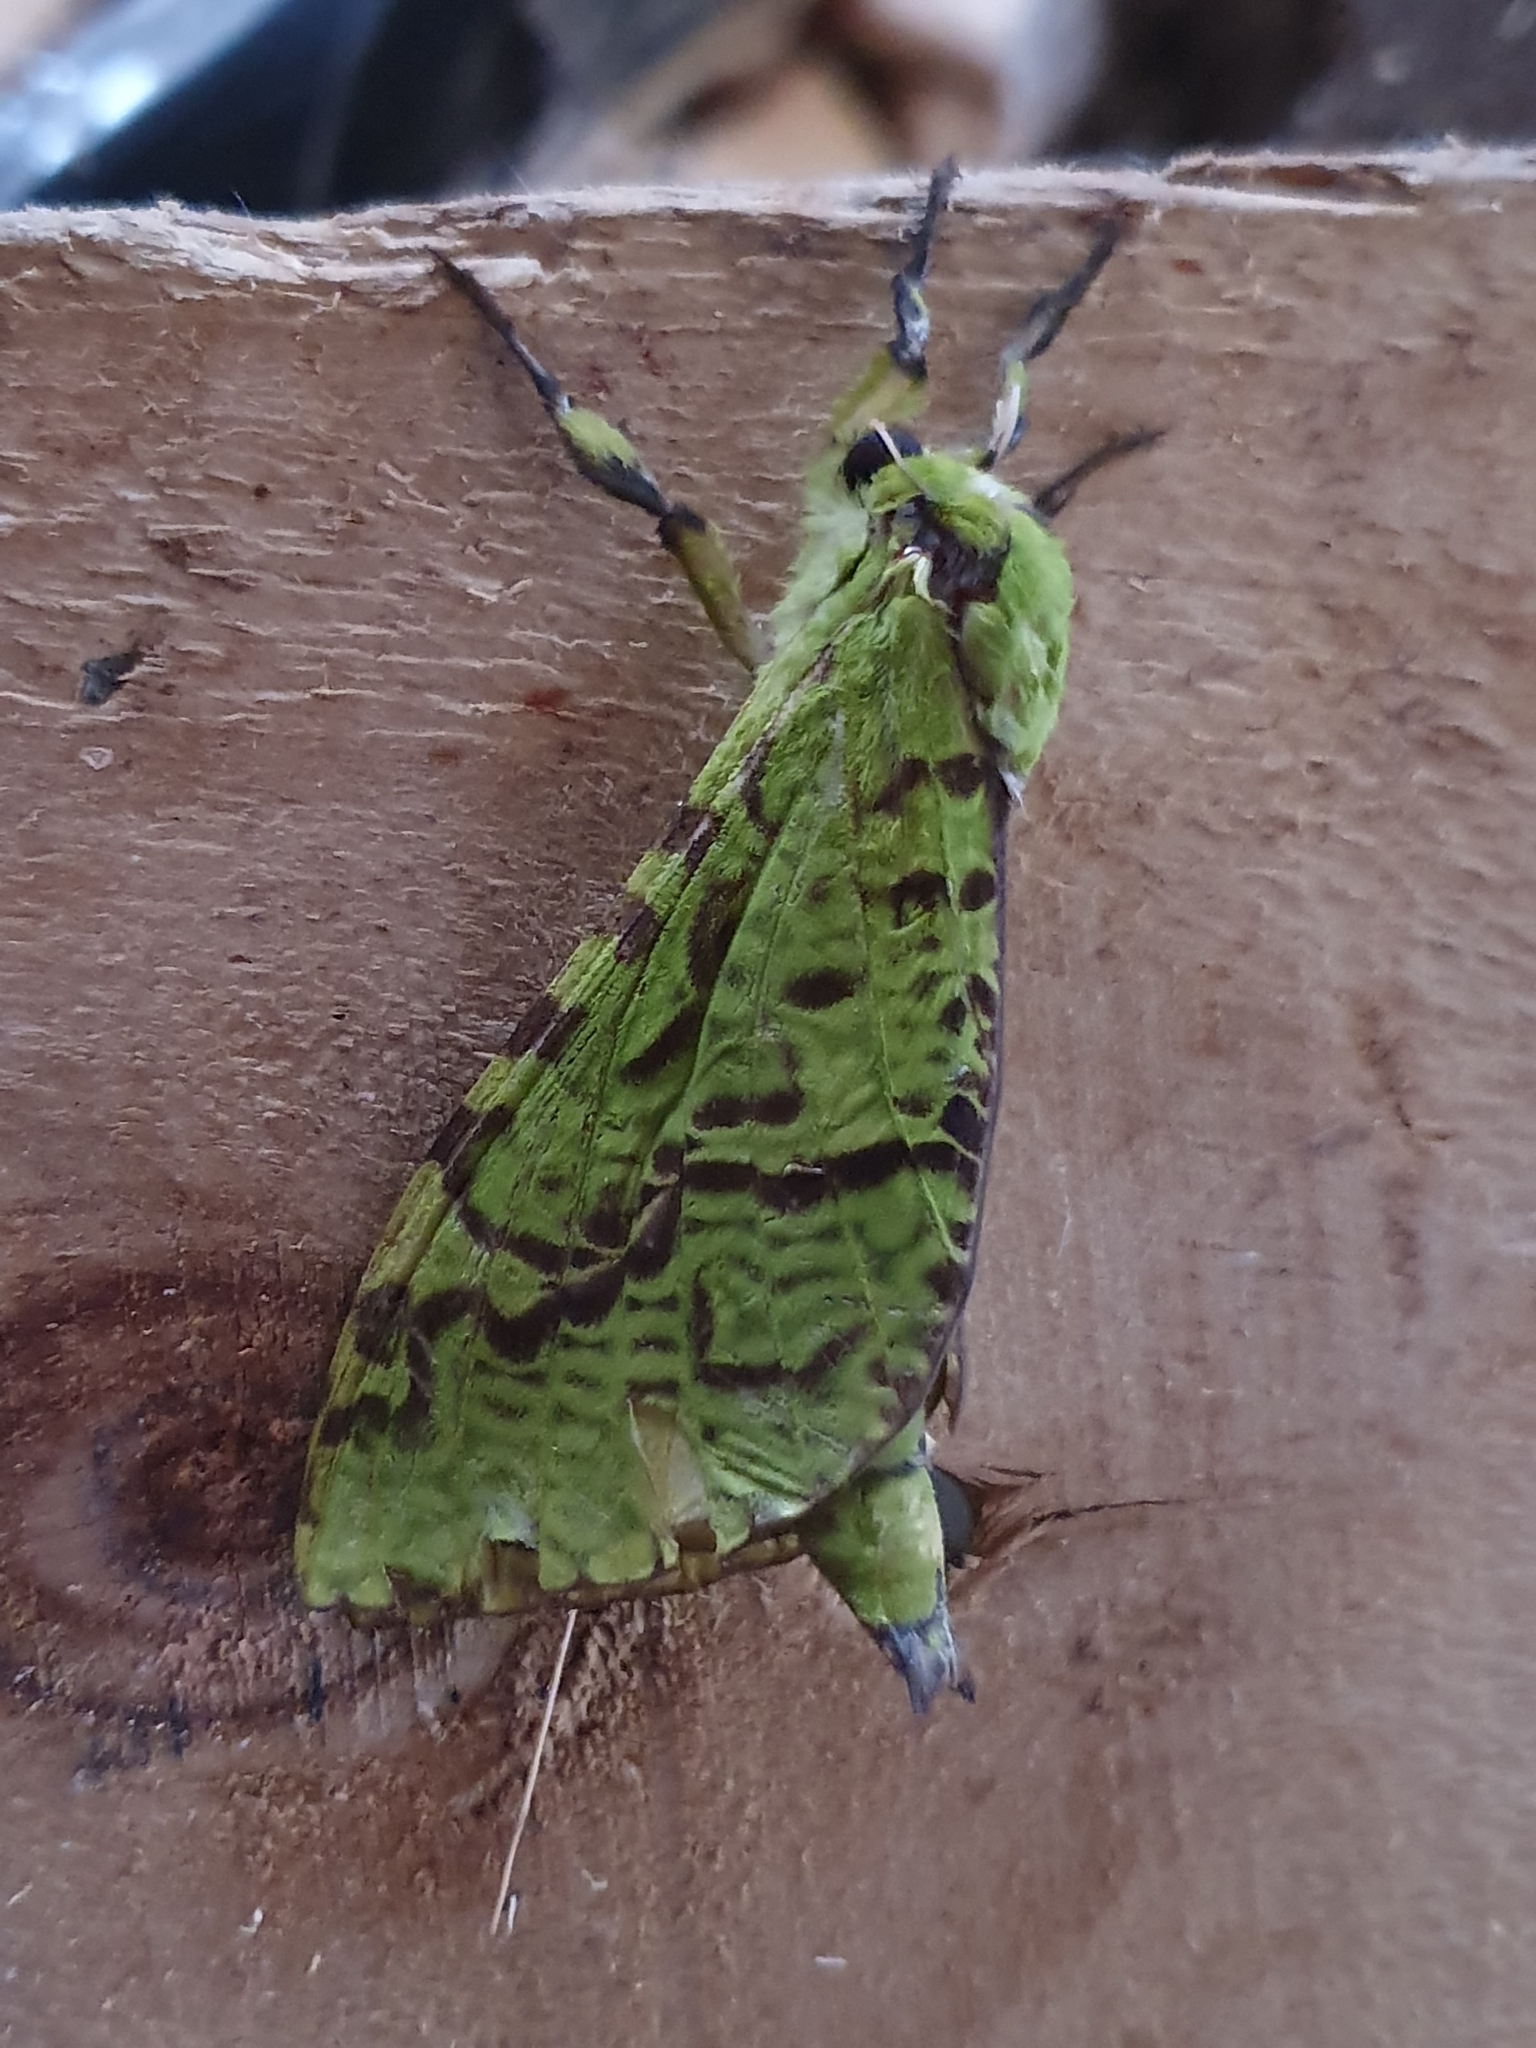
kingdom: Animalia
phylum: Arthropoda
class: Insecta
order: Lepidoptera
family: Hepialidae
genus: Aenetus
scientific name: Aenetus virescens
